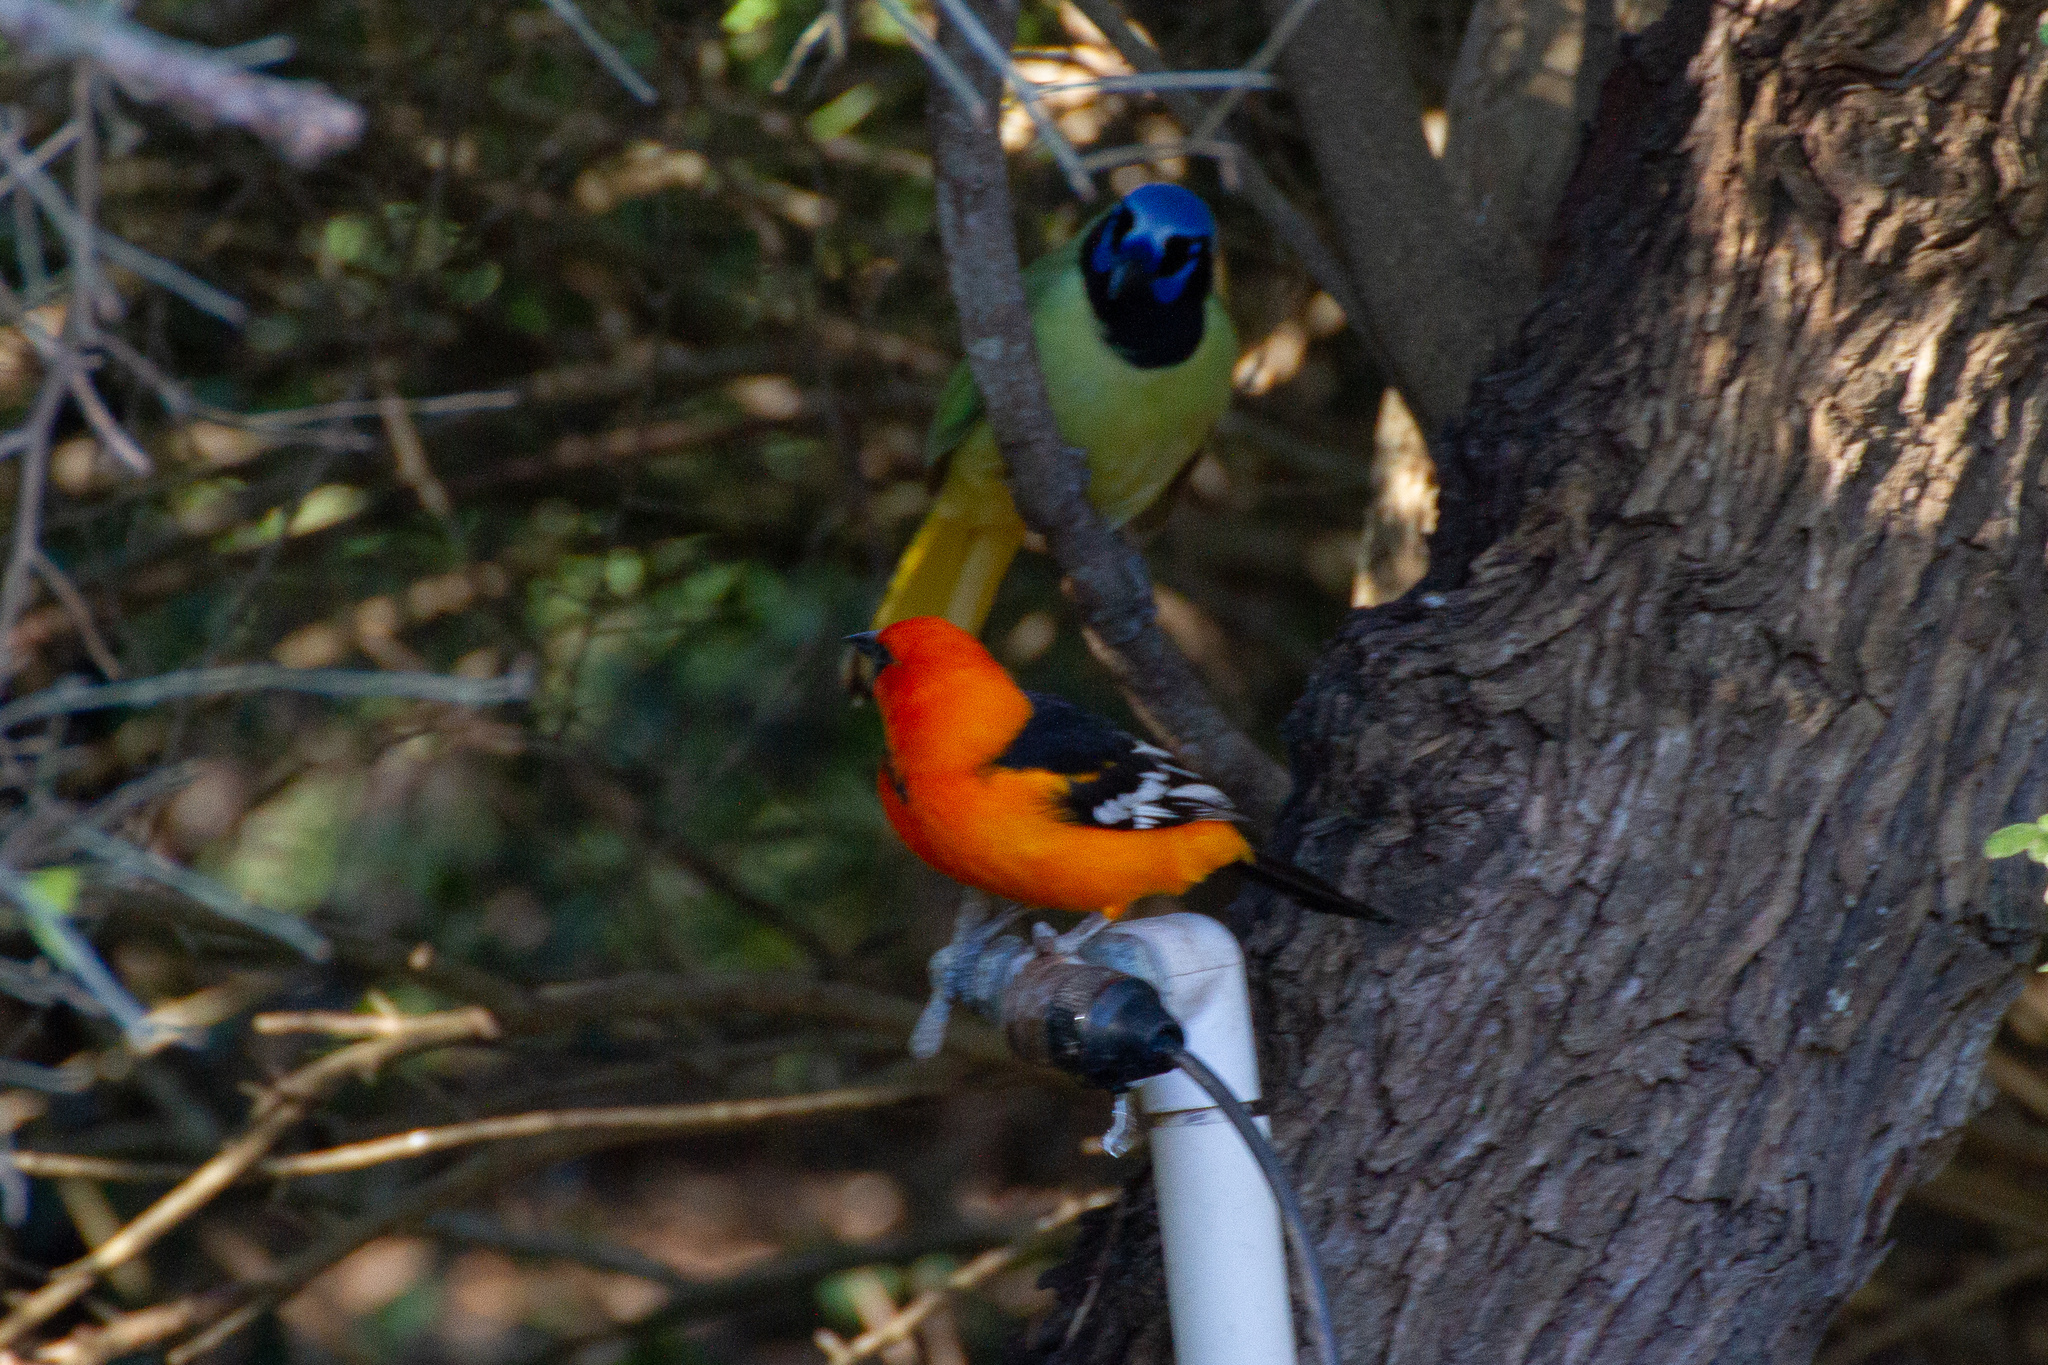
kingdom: Animalia
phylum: Chordata
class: Aves
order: Passeriformes
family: Icteridae
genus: Icterus
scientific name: Icterus gularis
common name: Altamira oriole
